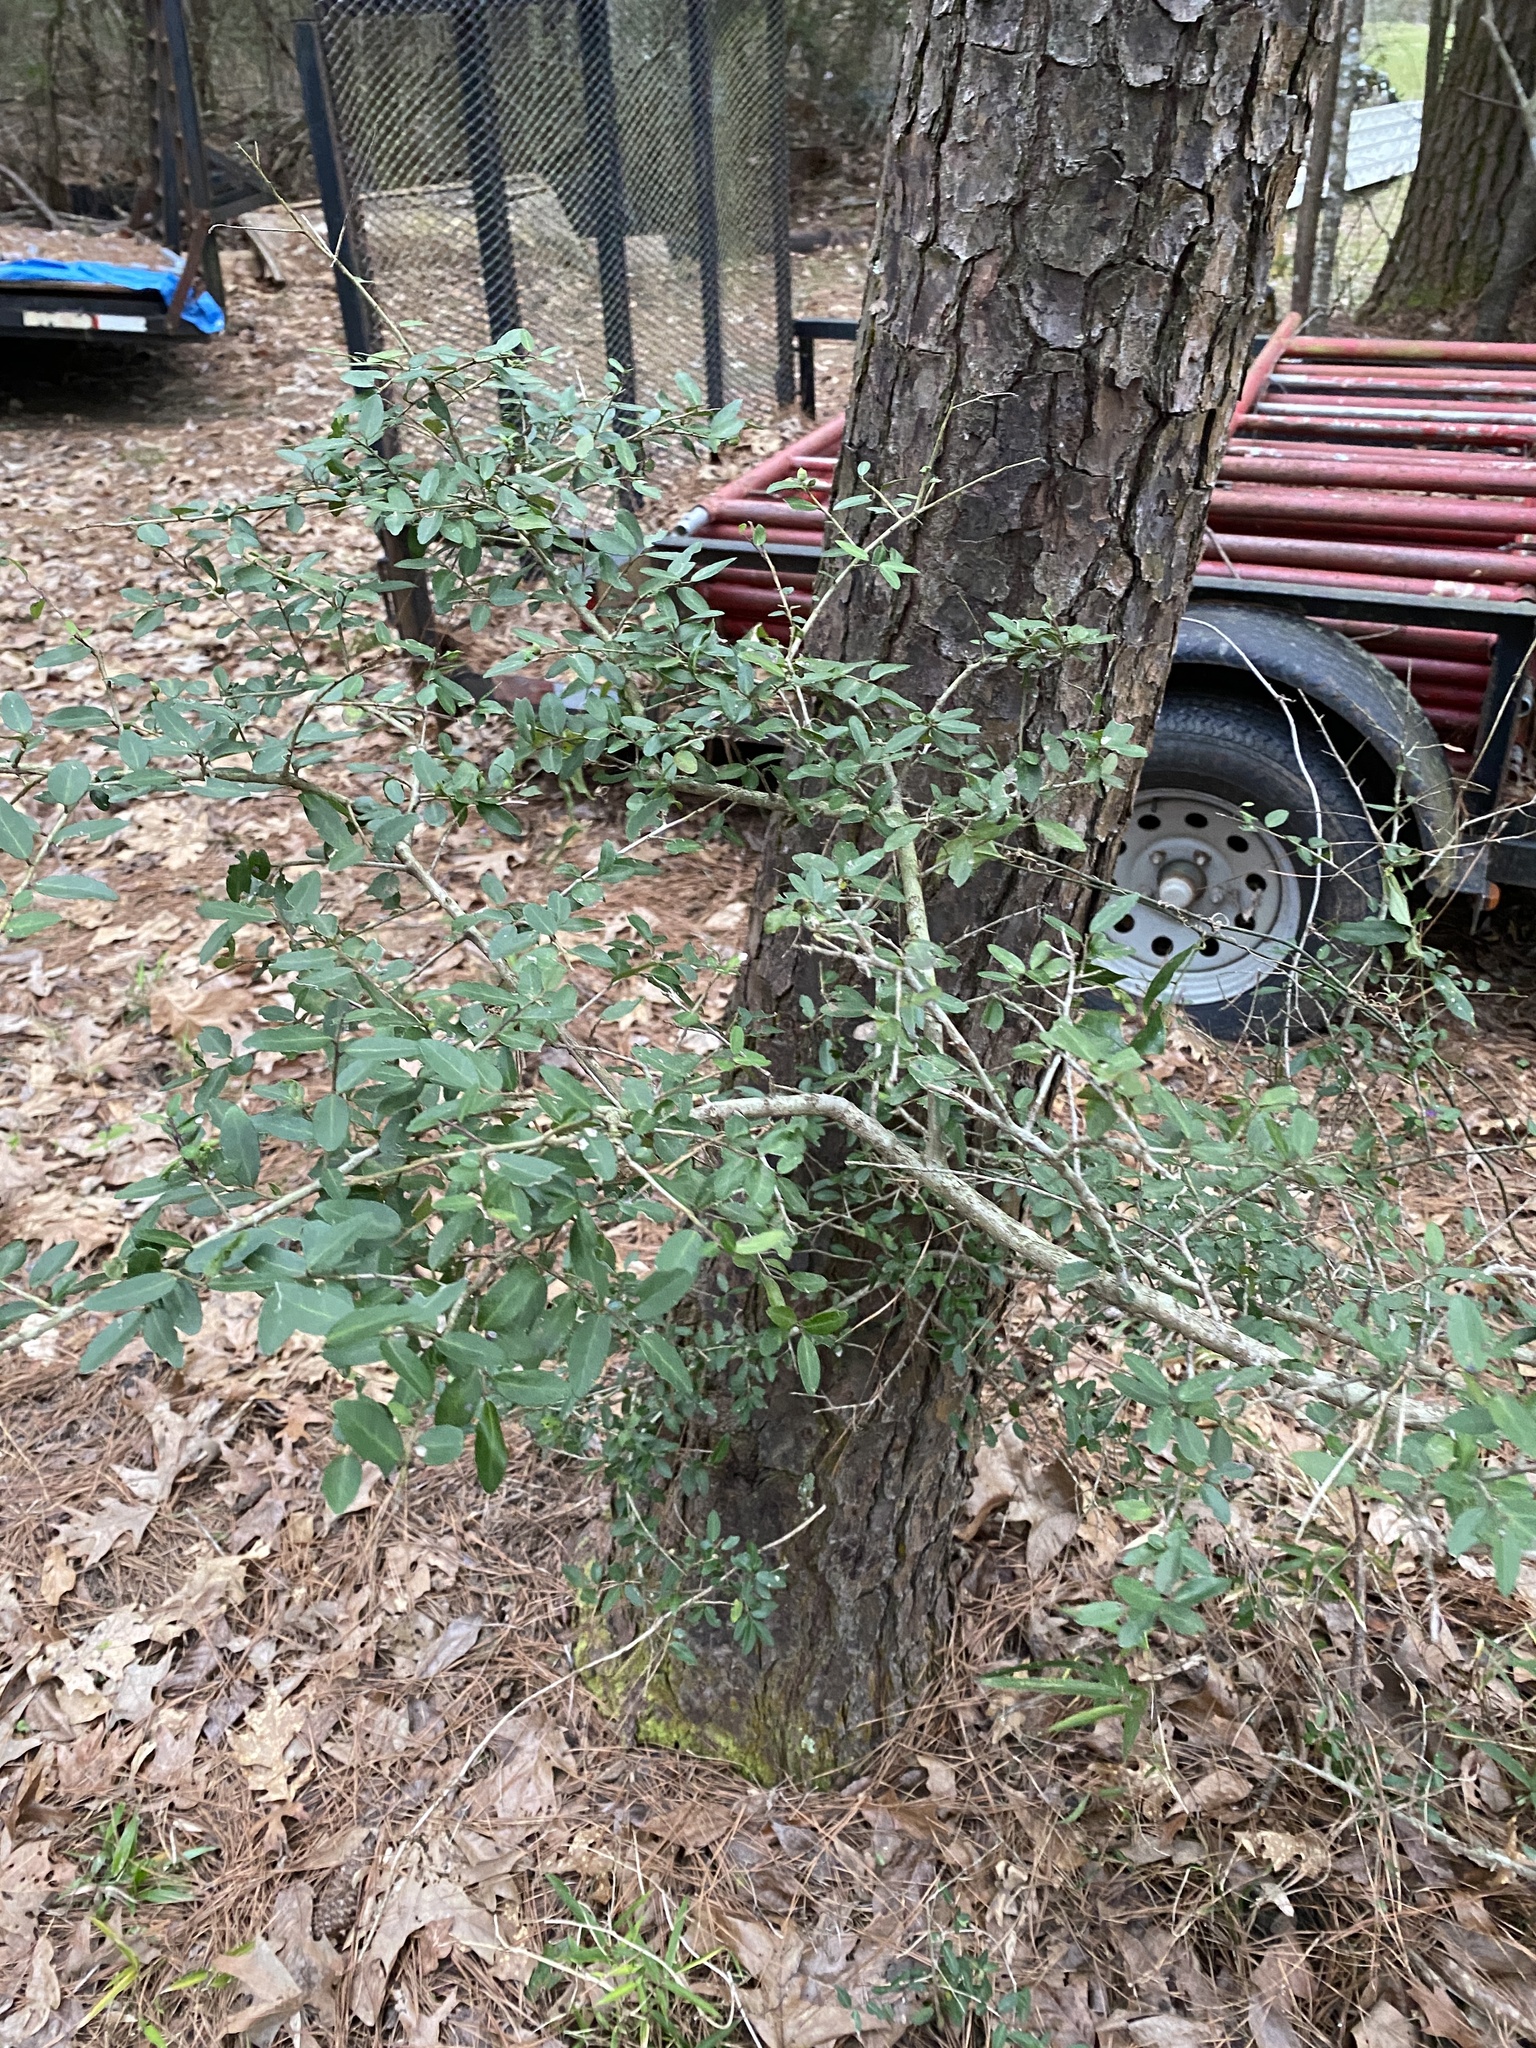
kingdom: Plantae
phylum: Tracheophyta
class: Magnoliopsida
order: Aquifoliales
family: Aquifoliaceae
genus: Ilex
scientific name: Ilex vomitoria
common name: Yaupon holly
